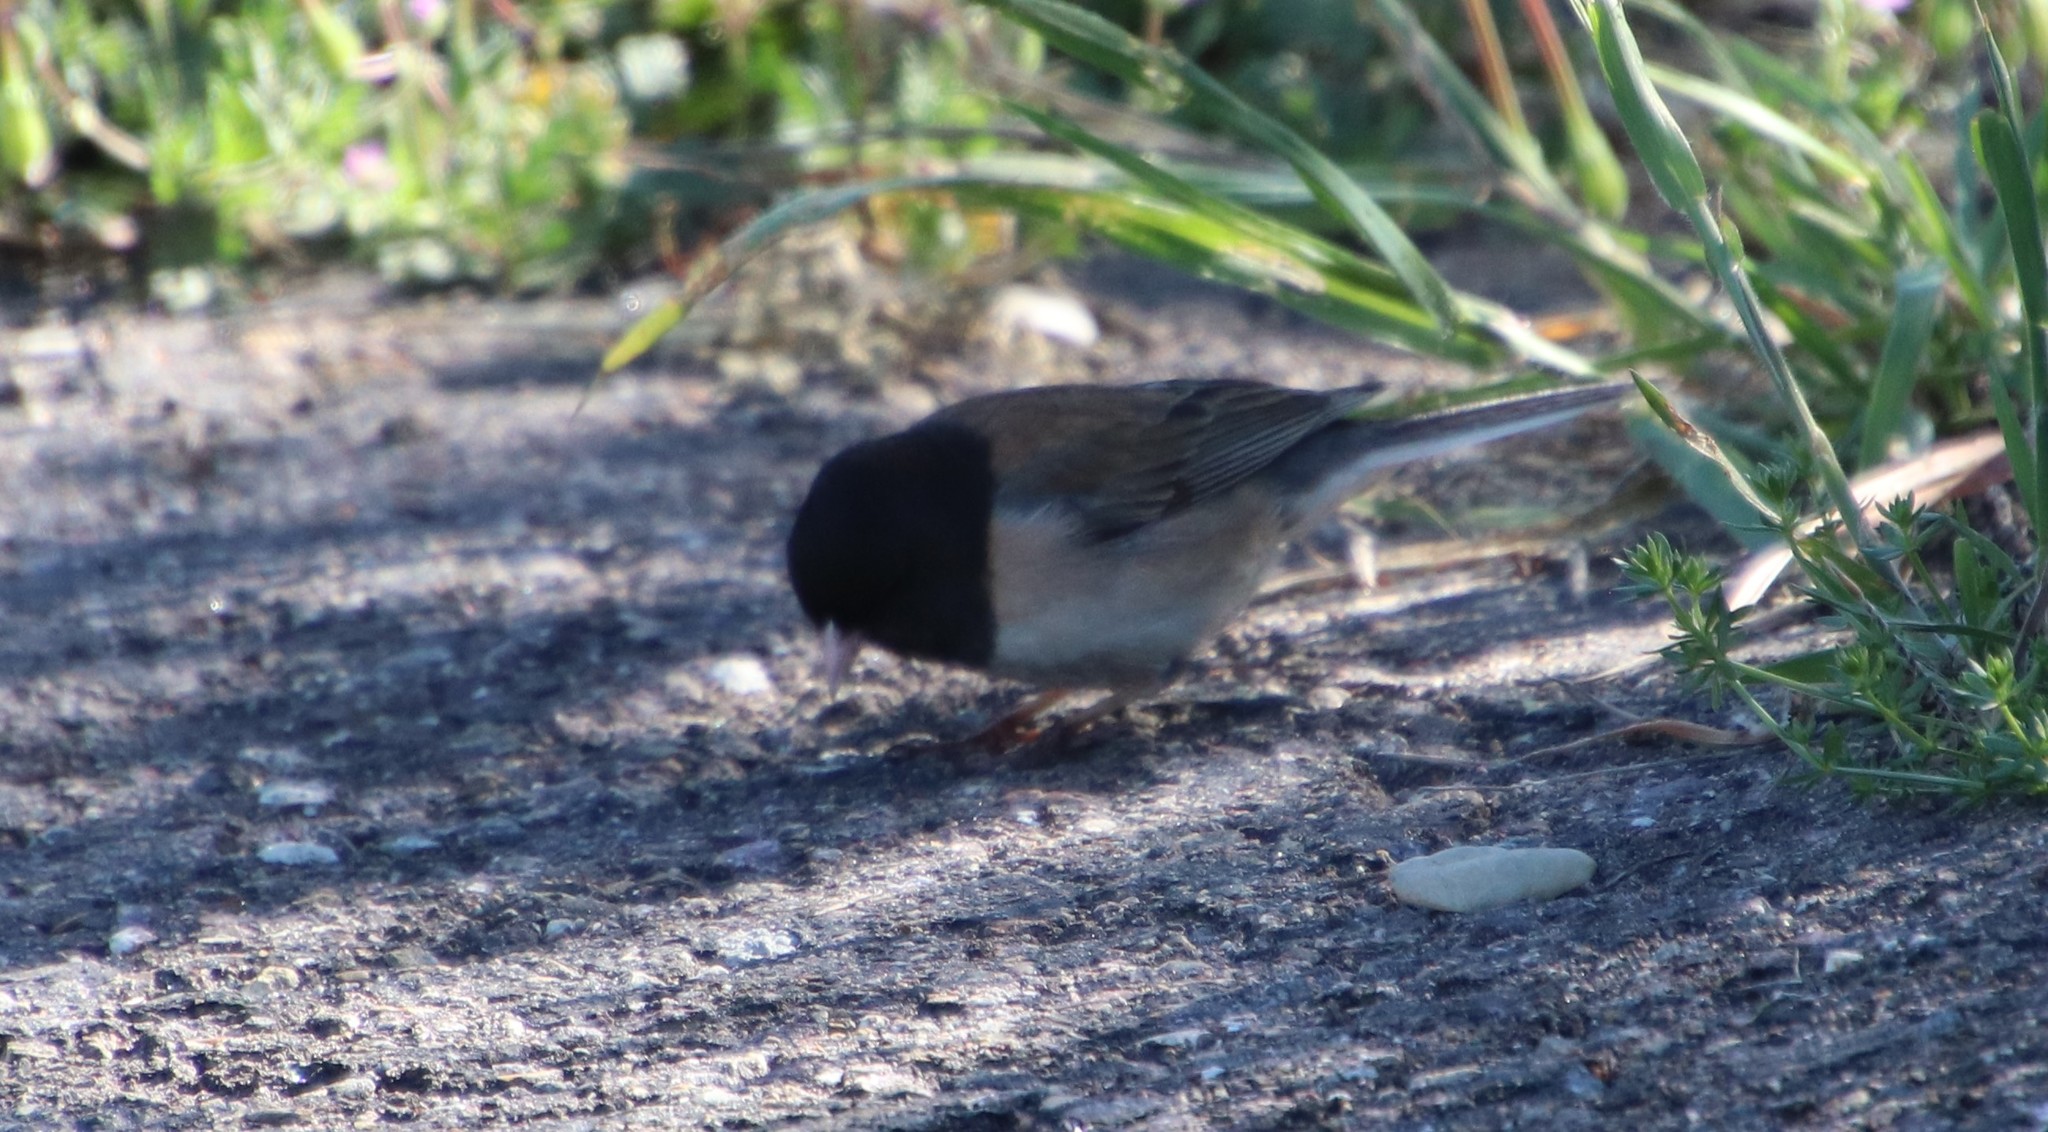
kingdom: Animalia
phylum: Chordata
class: Aves
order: Passeriformes
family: Passerellidae
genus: Junco
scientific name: Junco hyemalis
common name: Dark-eyed junco
